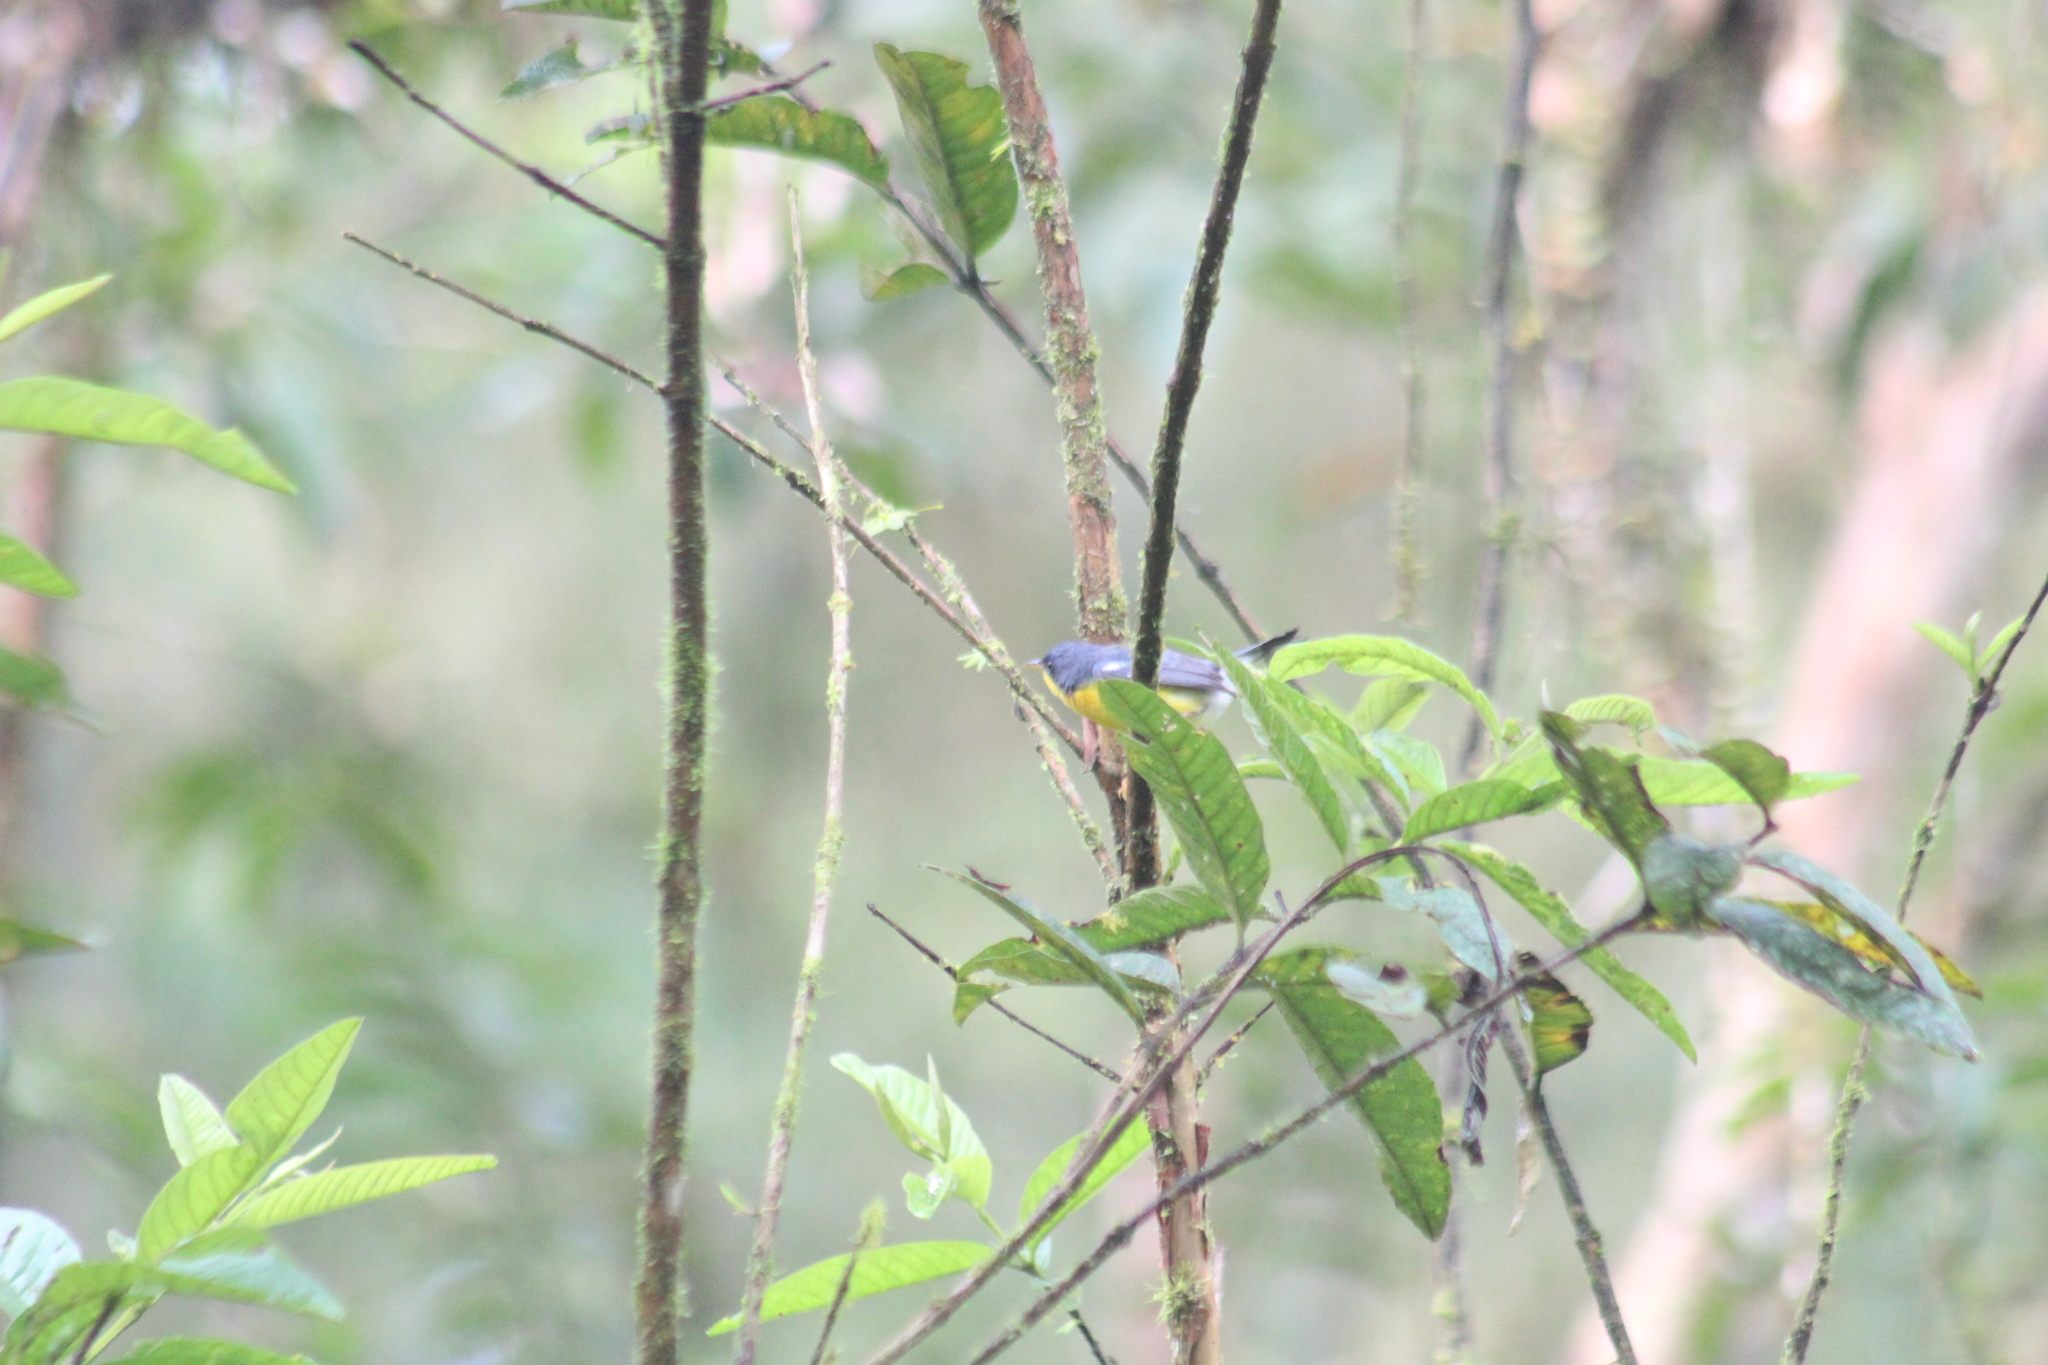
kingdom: Animalia
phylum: Chordata
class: Aves
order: Passeriformes
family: Parulidae
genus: Setophaga
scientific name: Setophaga pitiayumi
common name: Tropical parula
